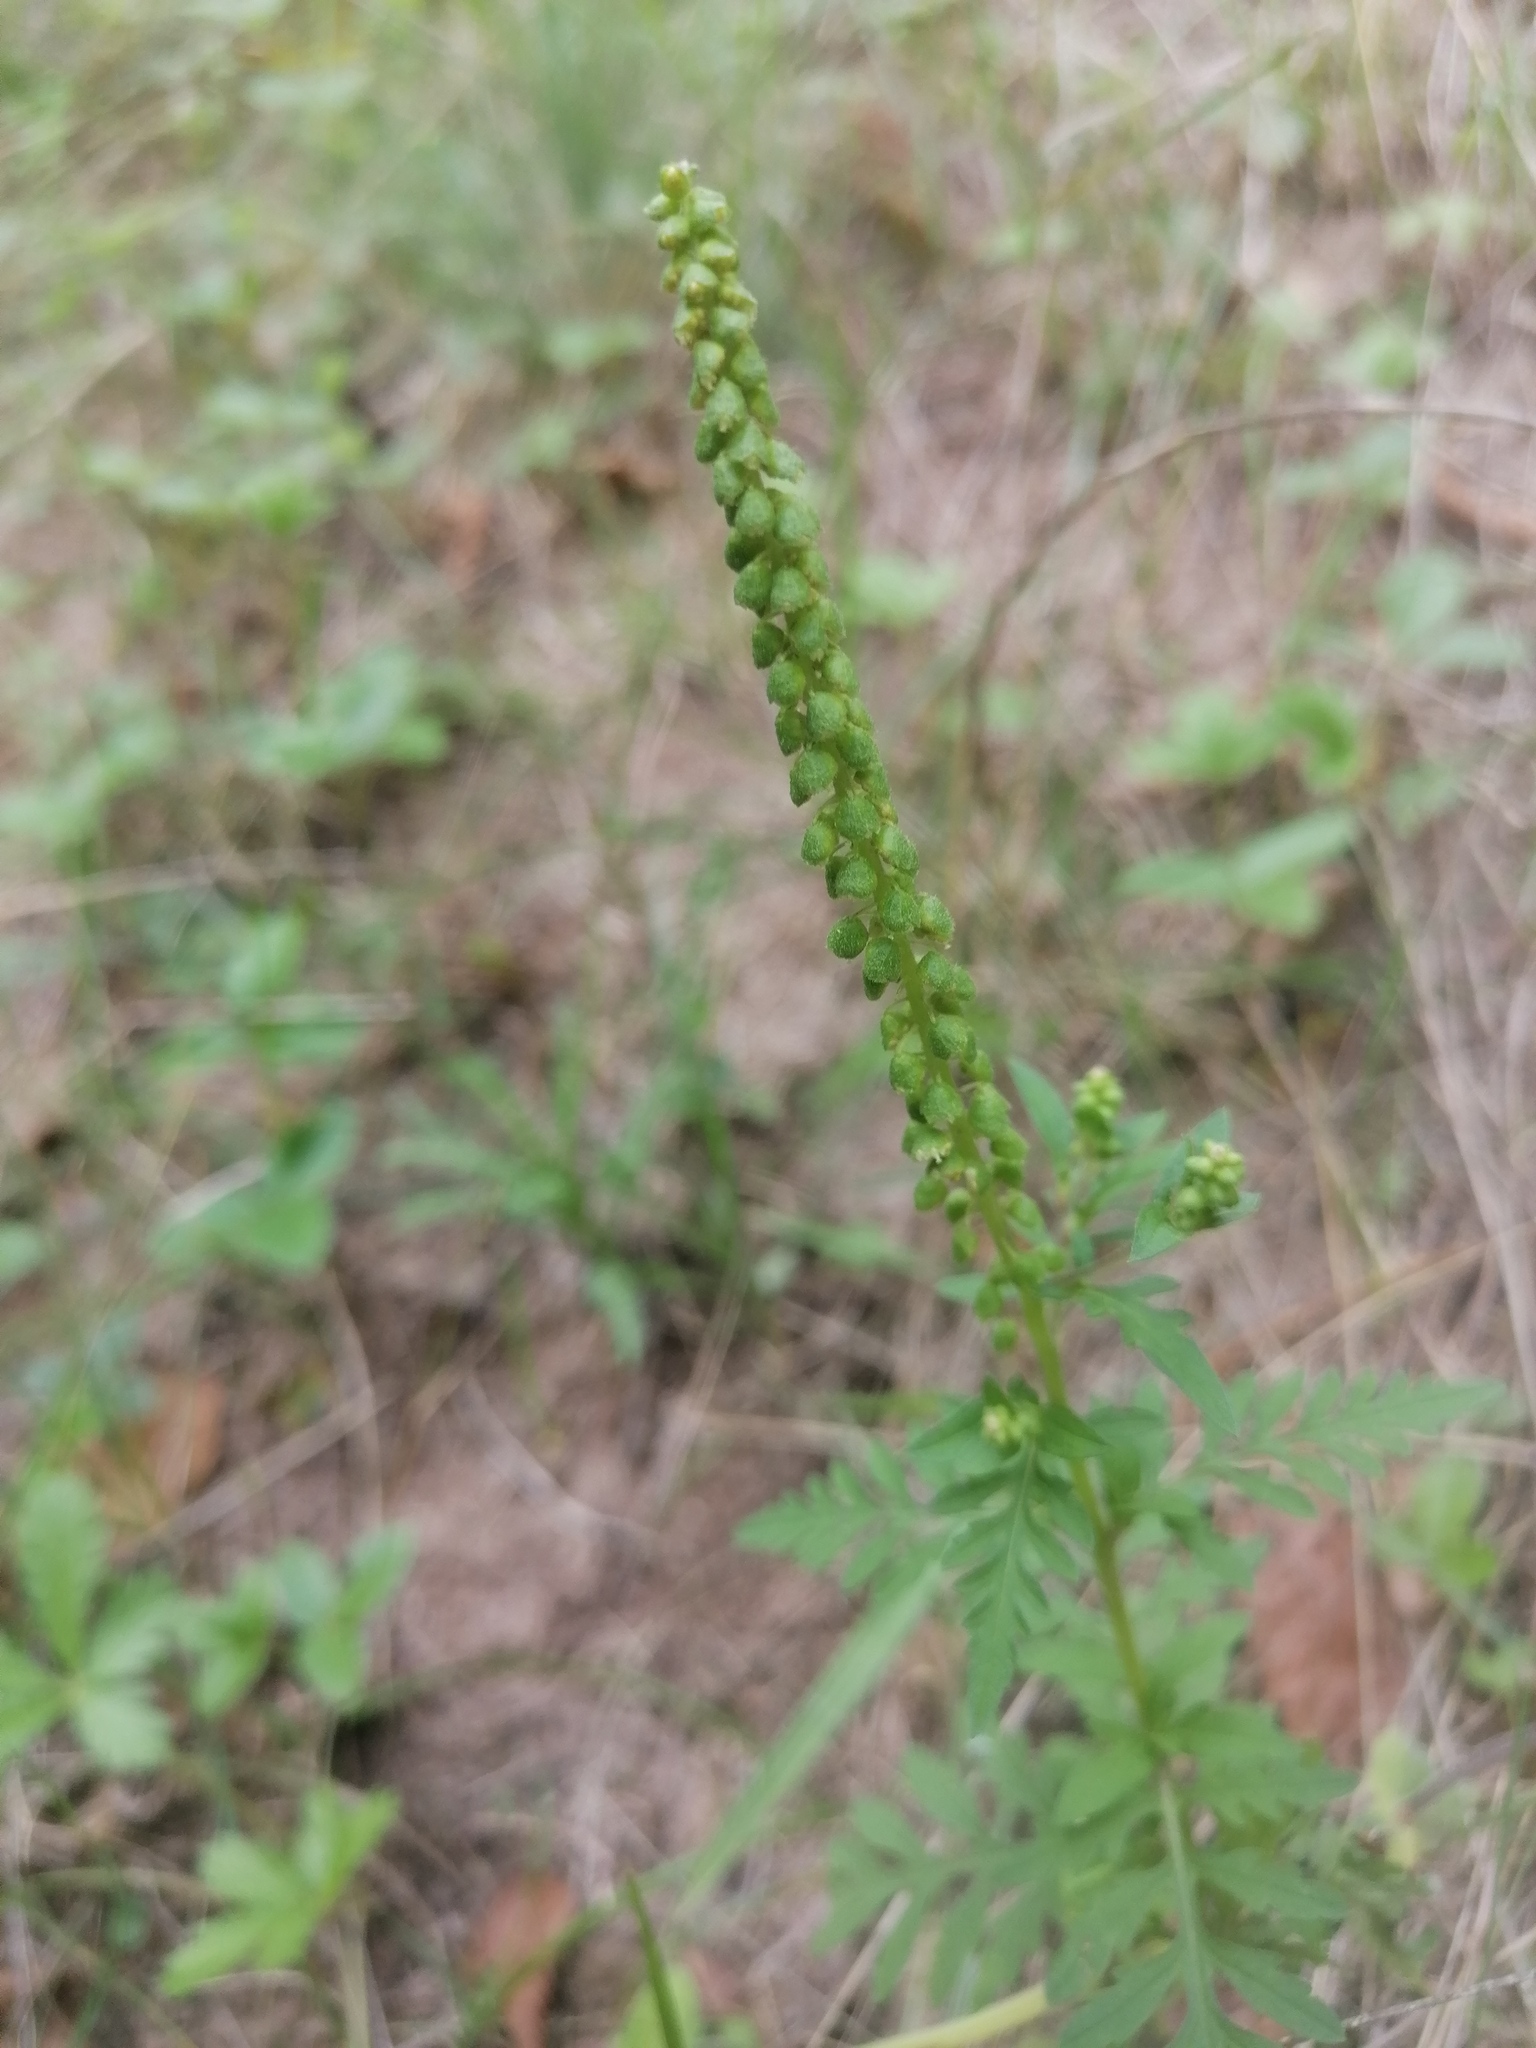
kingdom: Plantae
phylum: Tracheophyta
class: Magnoliopsida
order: Asterales
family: Asteraceae
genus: Ambrosia
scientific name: Ambrosia artemisiifolia
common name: Annual ragweed
